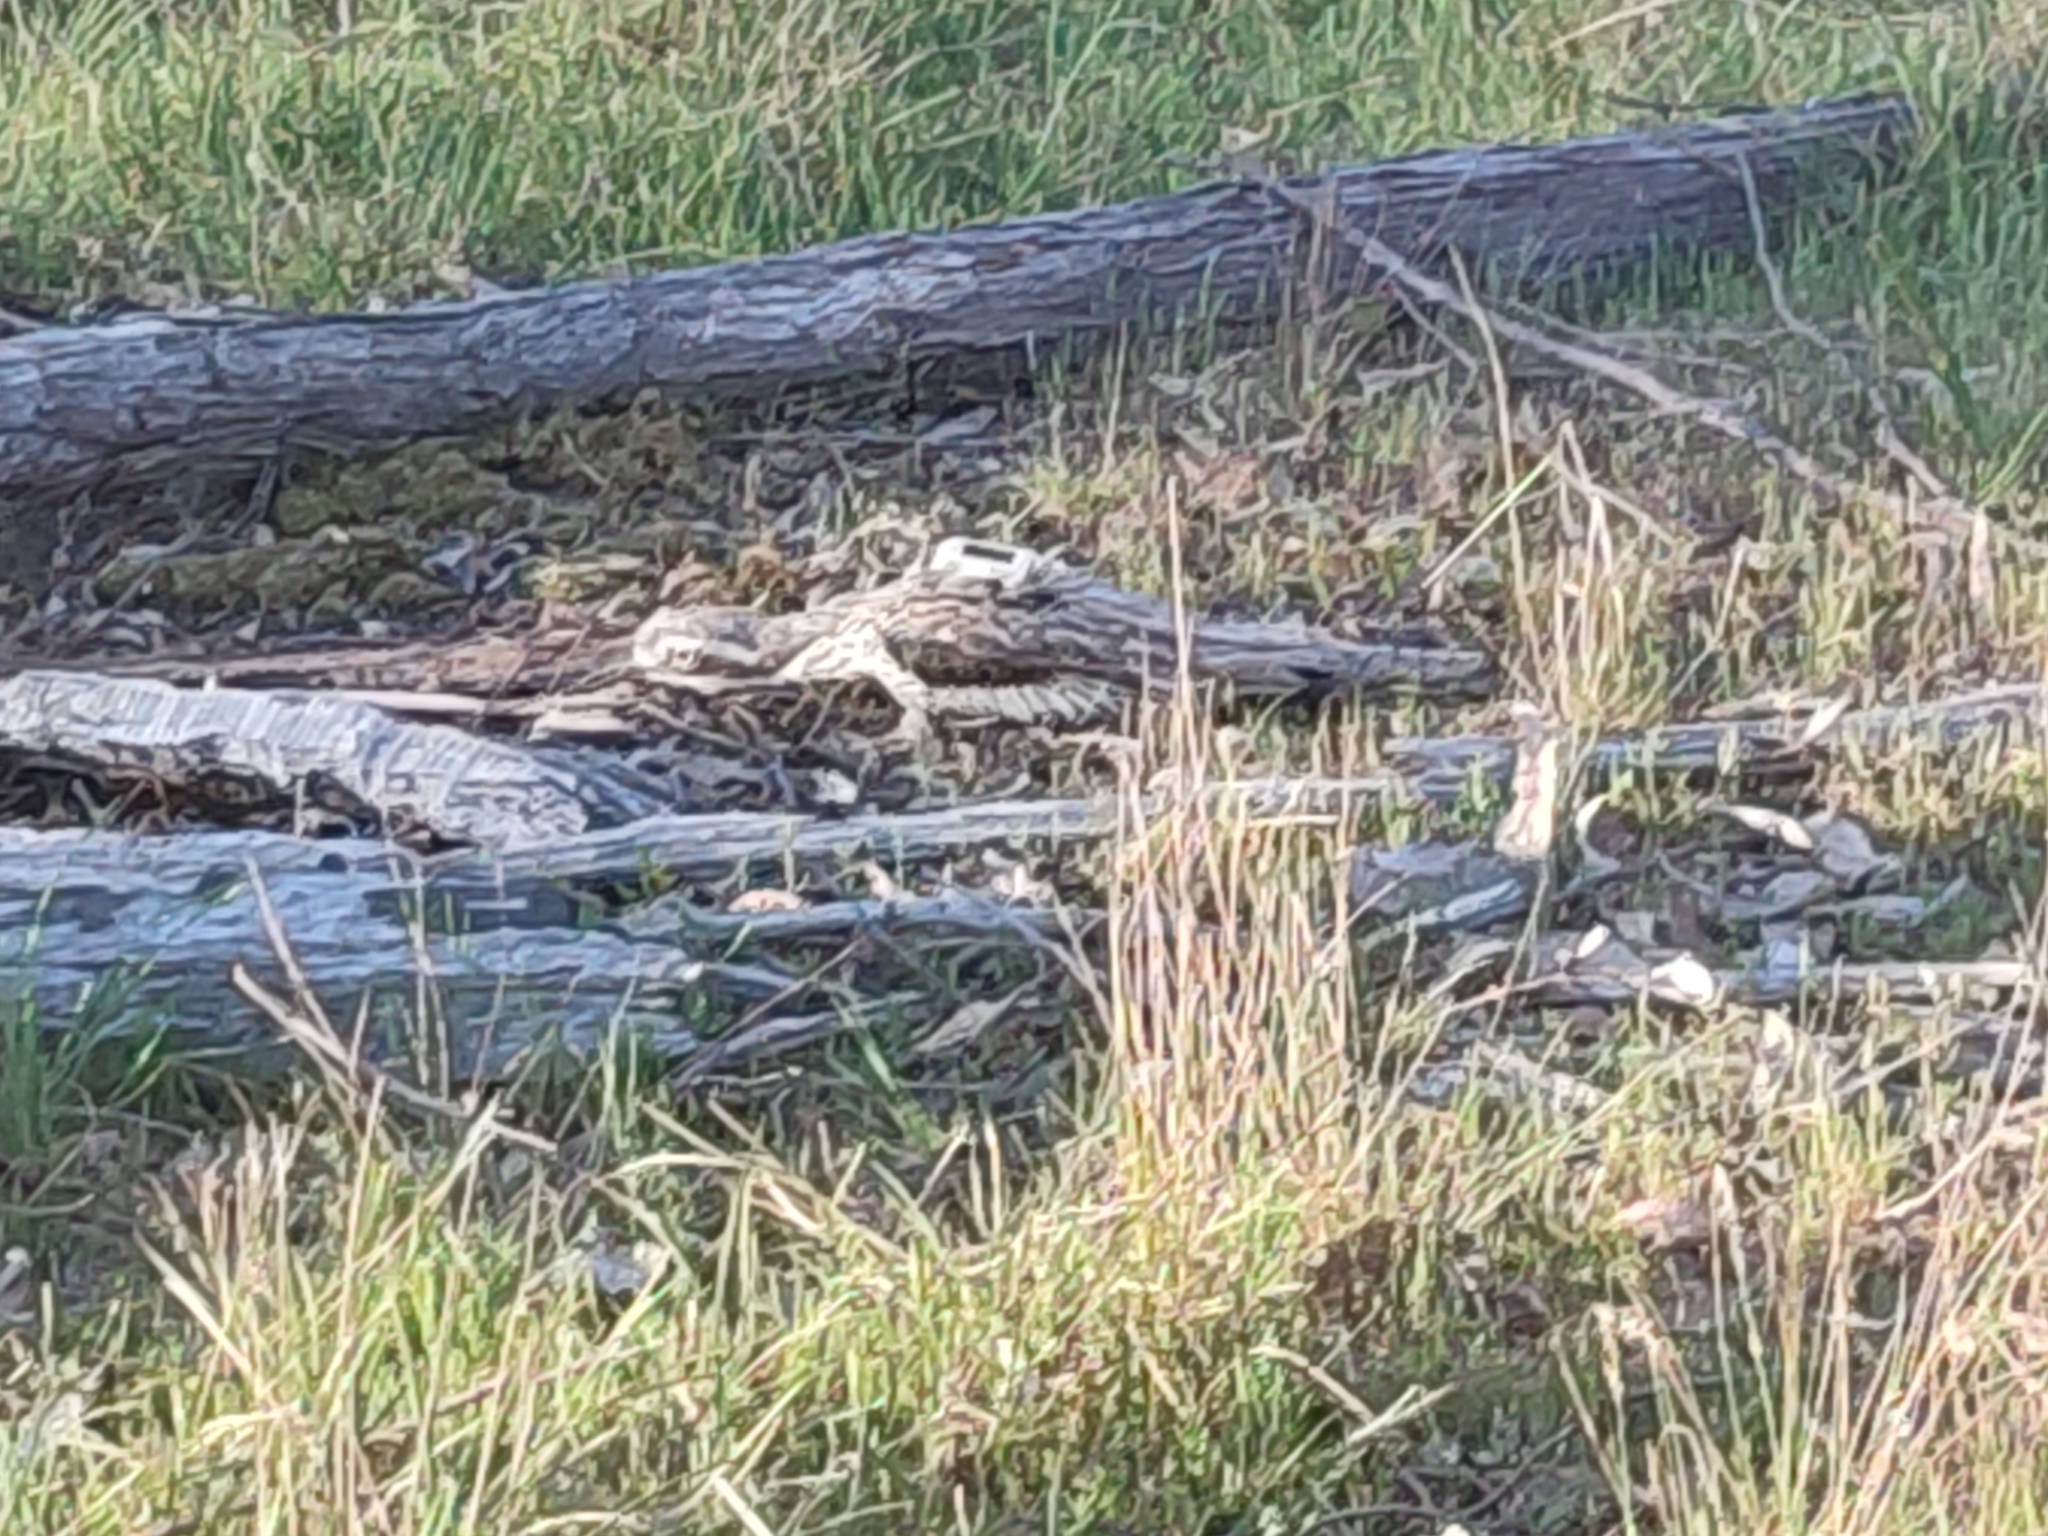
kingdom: Animalia
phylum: Chordata
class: Aves
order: Charadriiformes
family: Burhinidae
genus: Burhinus
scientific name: Burhinus grallarius
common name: Bush stone-curlew
